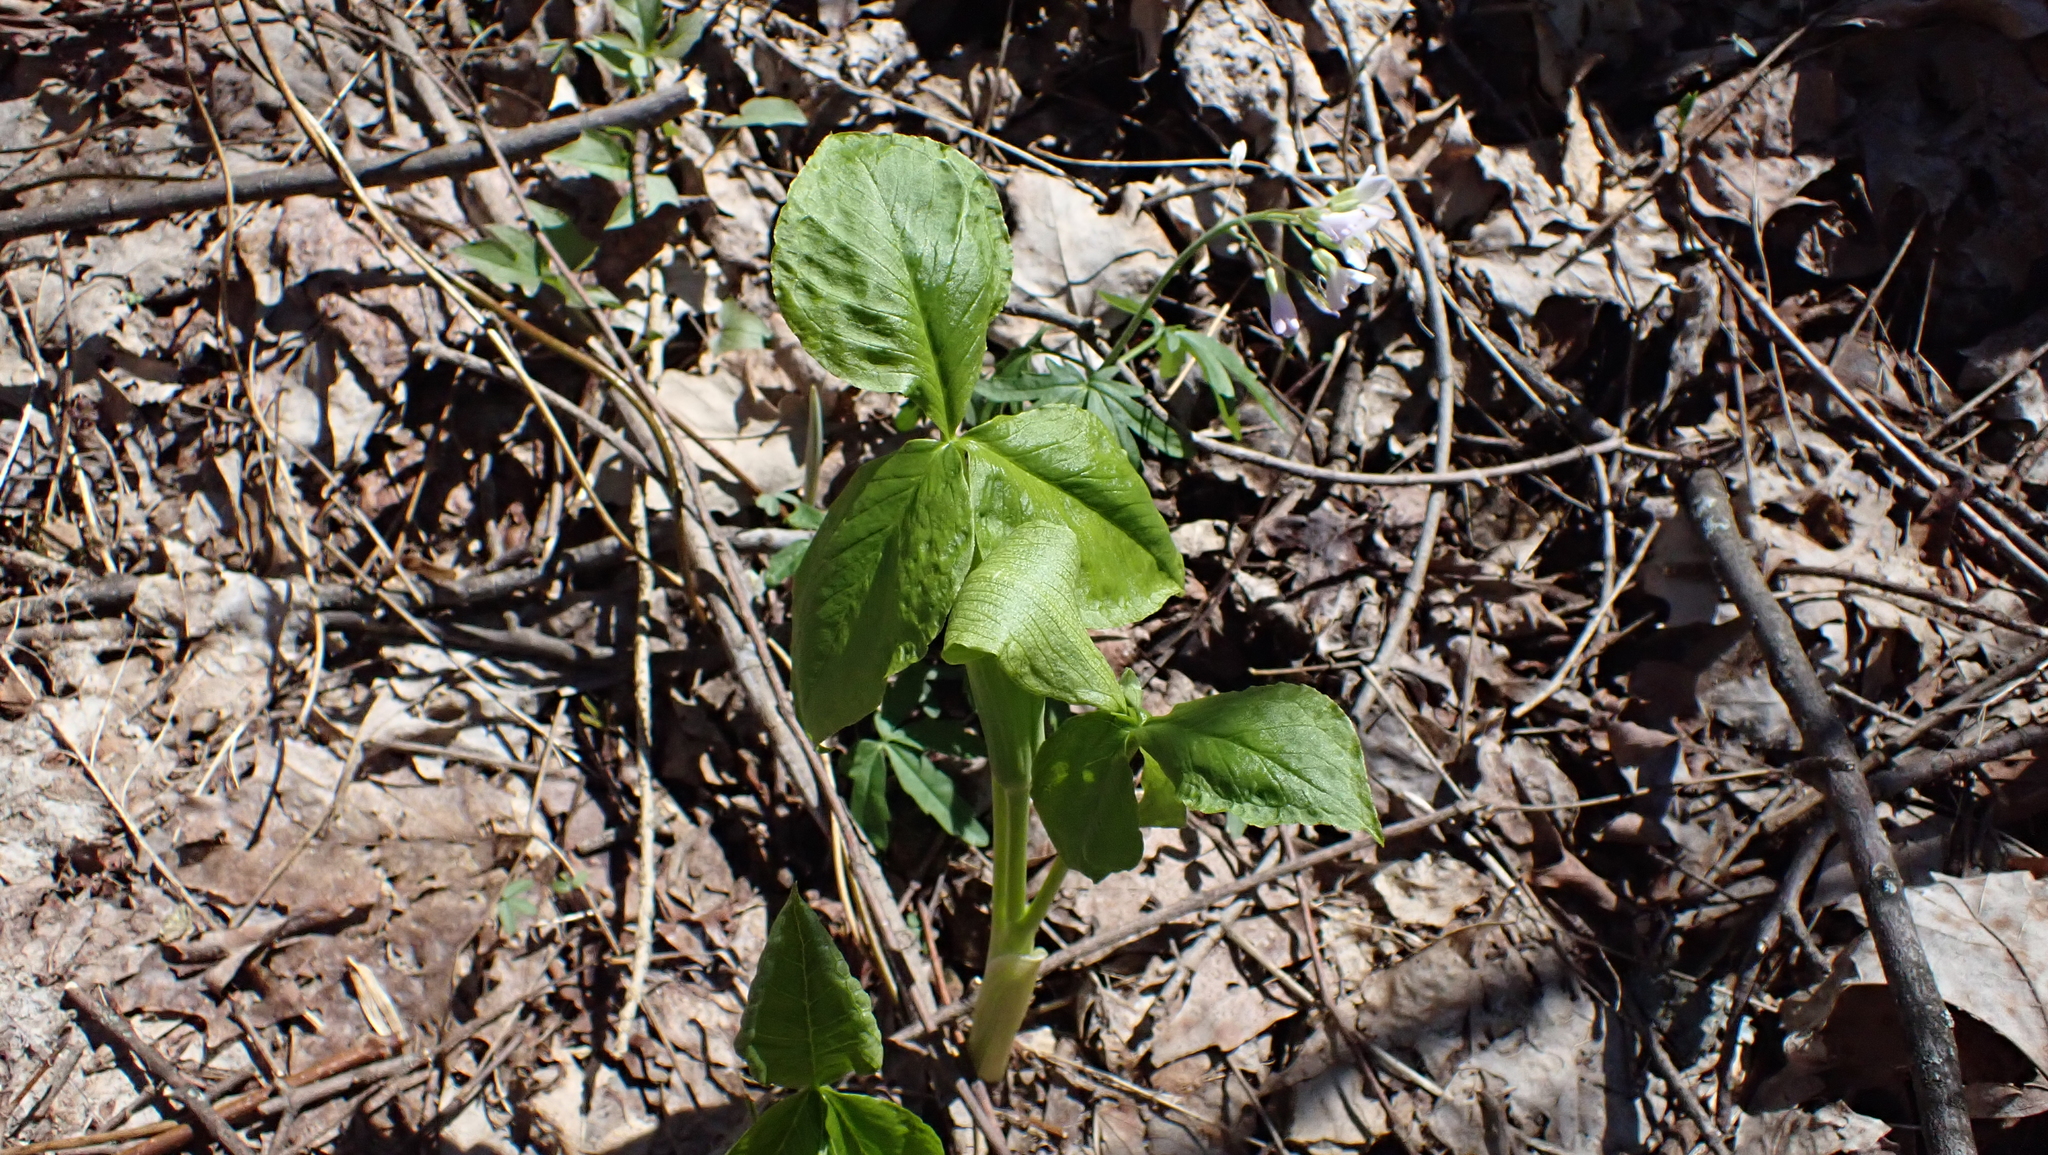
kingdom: Plantae
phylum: Tracheophyta
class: Liliopsida
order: Alismatales
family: Araceae
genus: Arisaema
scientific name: Arisaema triphyllum
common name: Jack-in-the-pulpit
